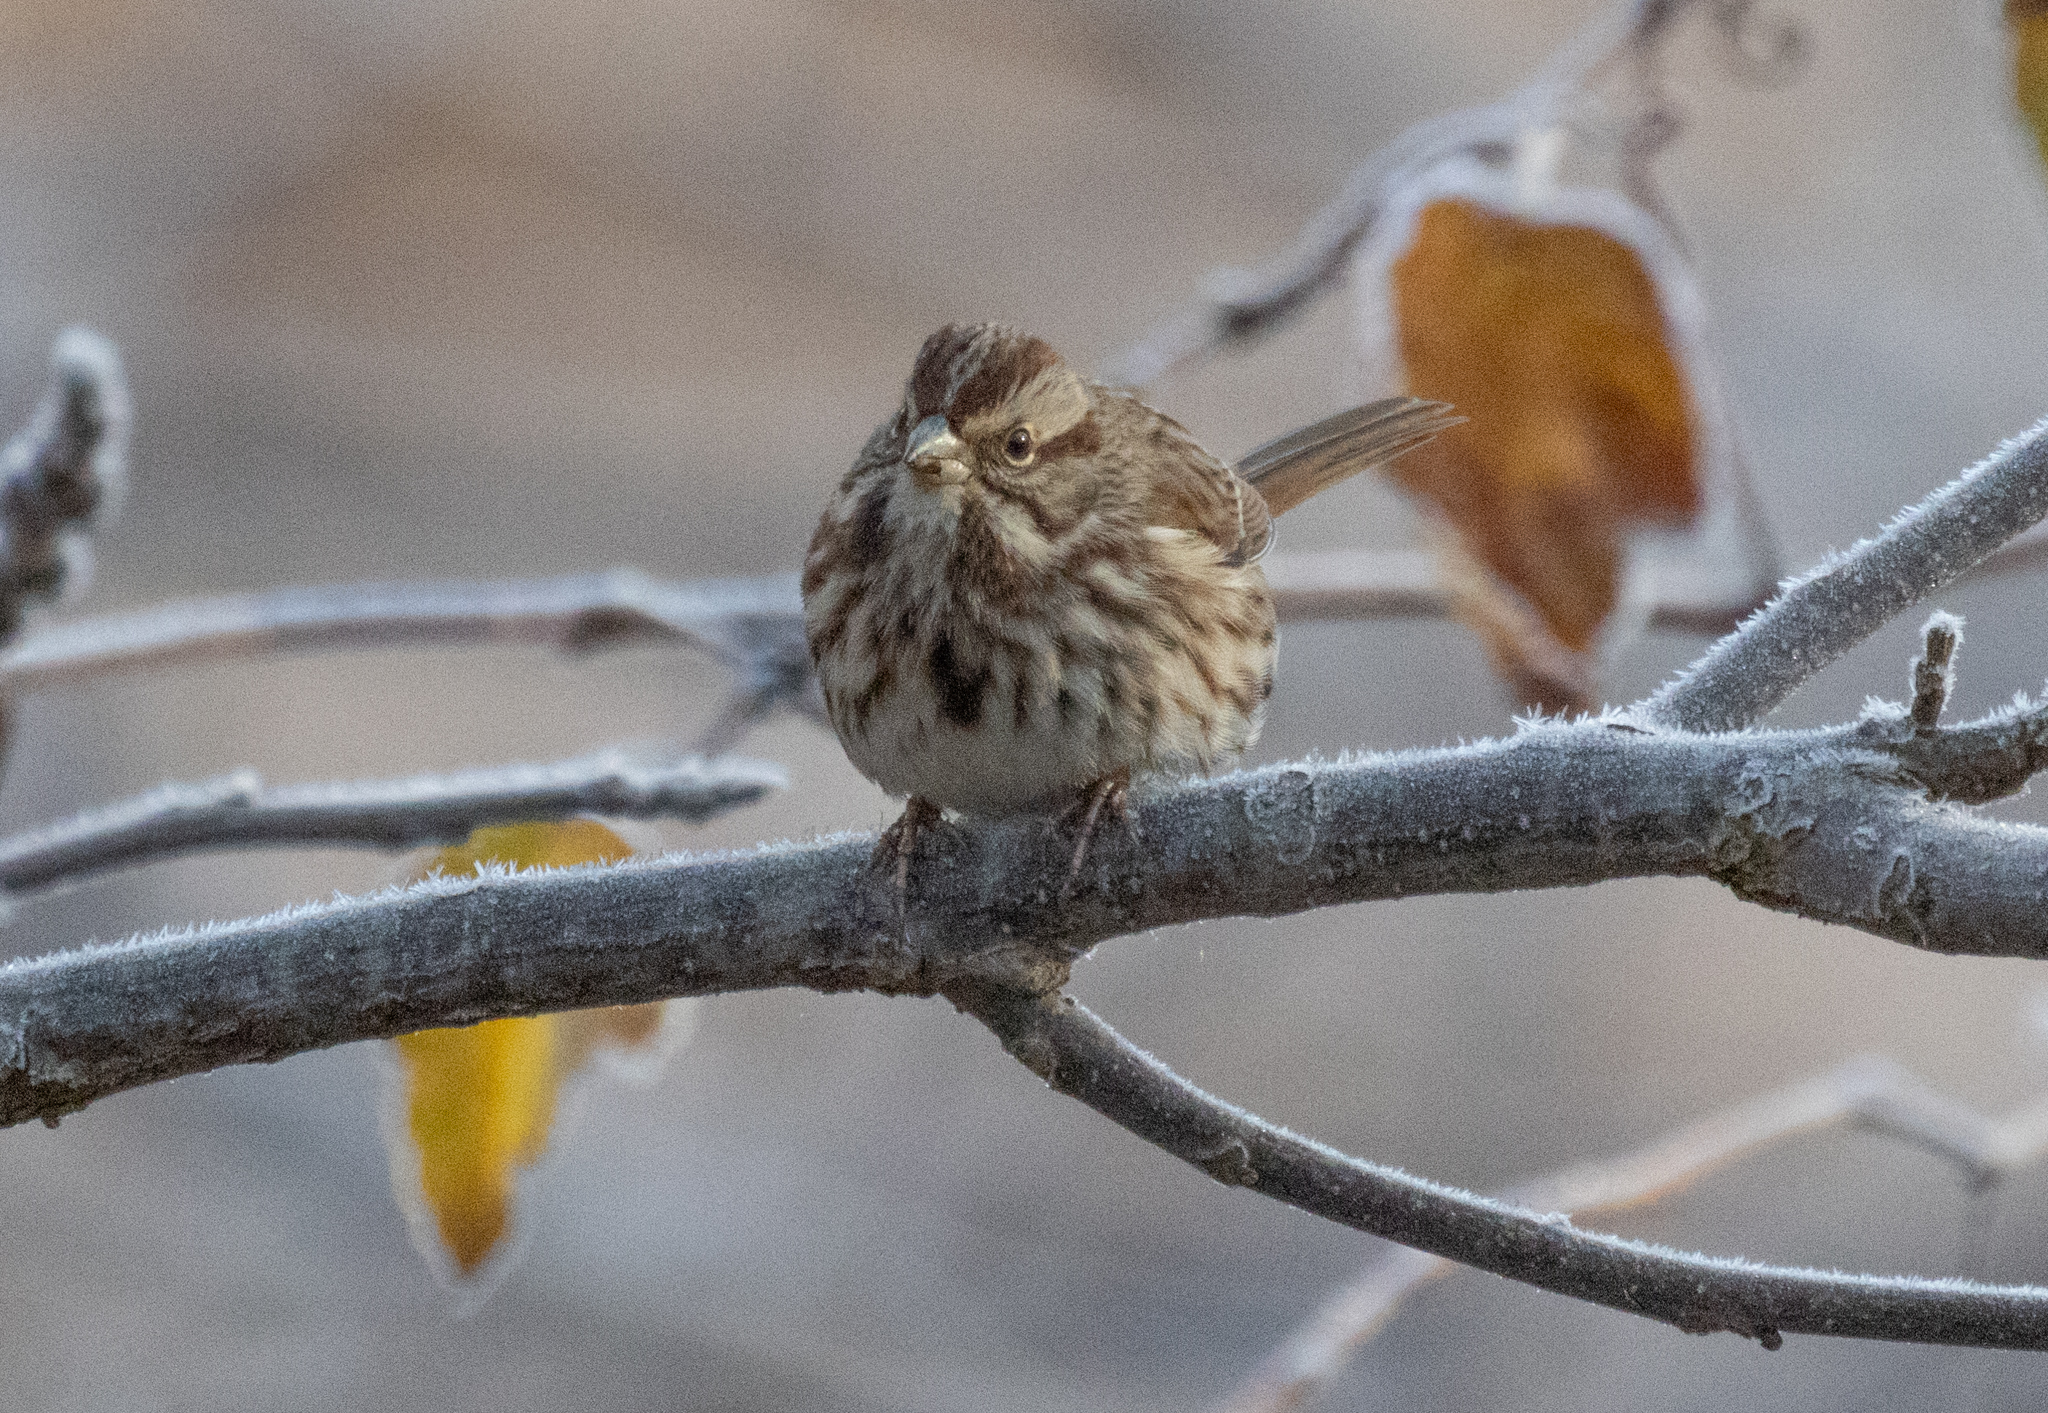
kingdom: Animalia
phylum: Chordata
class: Aves
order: Passeriformes
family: Passerellidae
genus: Melospiza
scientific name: Melospiza melodia
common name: Song sparrow
